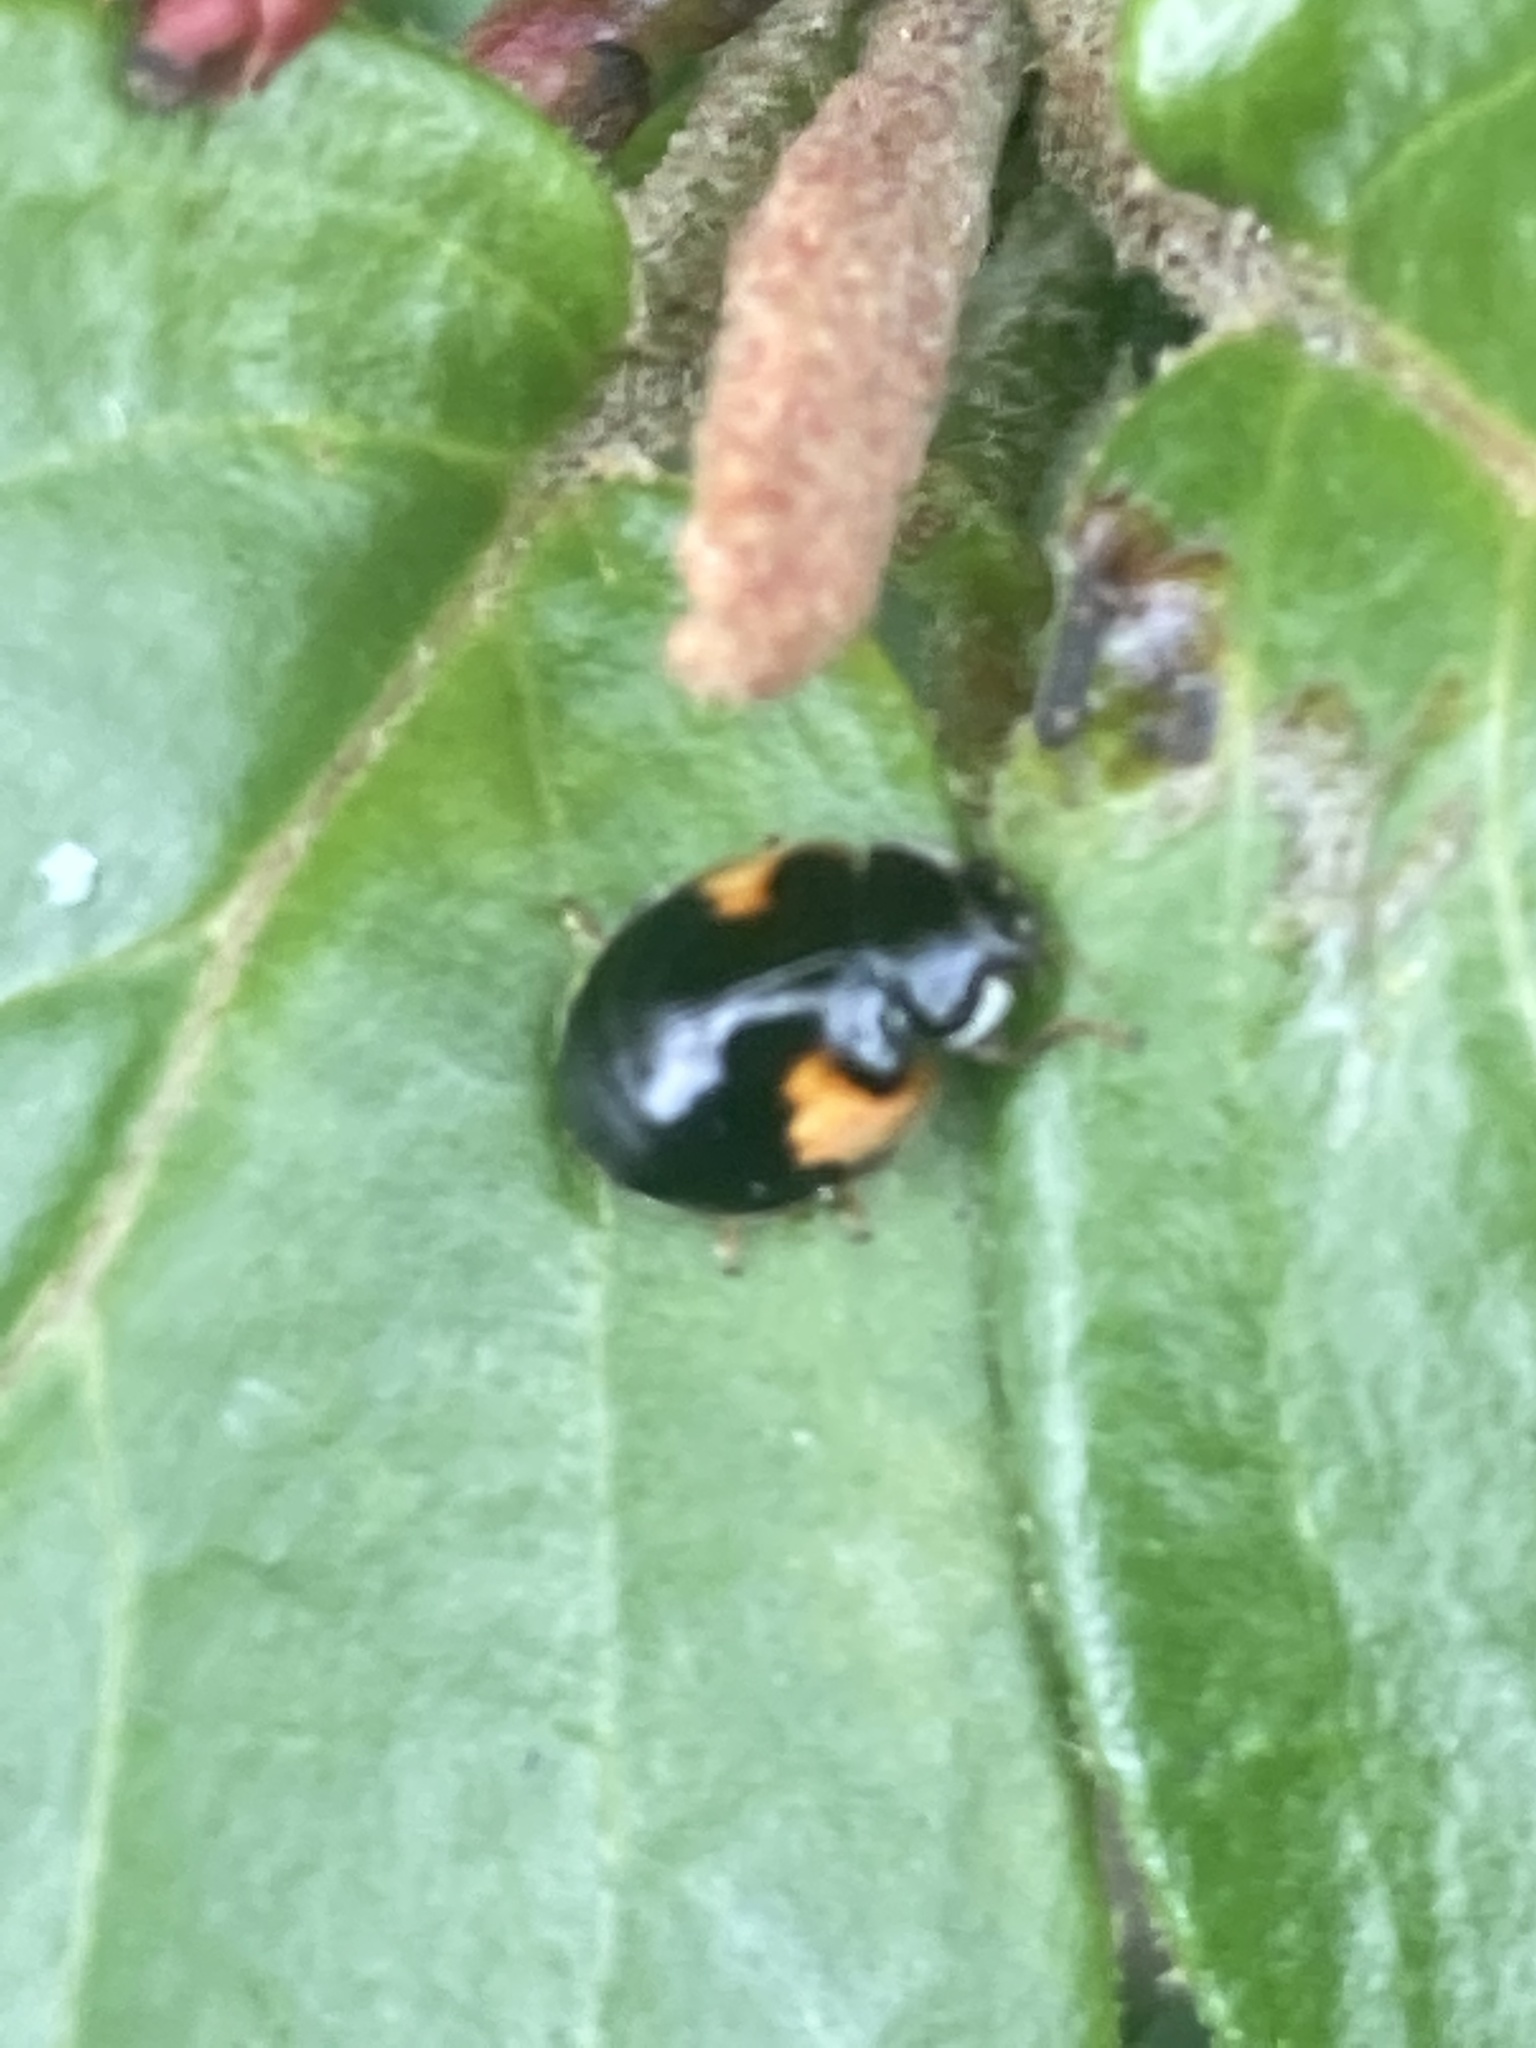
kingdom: Animalia
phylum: Arthropoda
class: Insecta
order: Coleoptera
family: Coccinellidae
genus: Adalia
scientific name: Adalia decempunctata
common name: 10-spot ladybird
